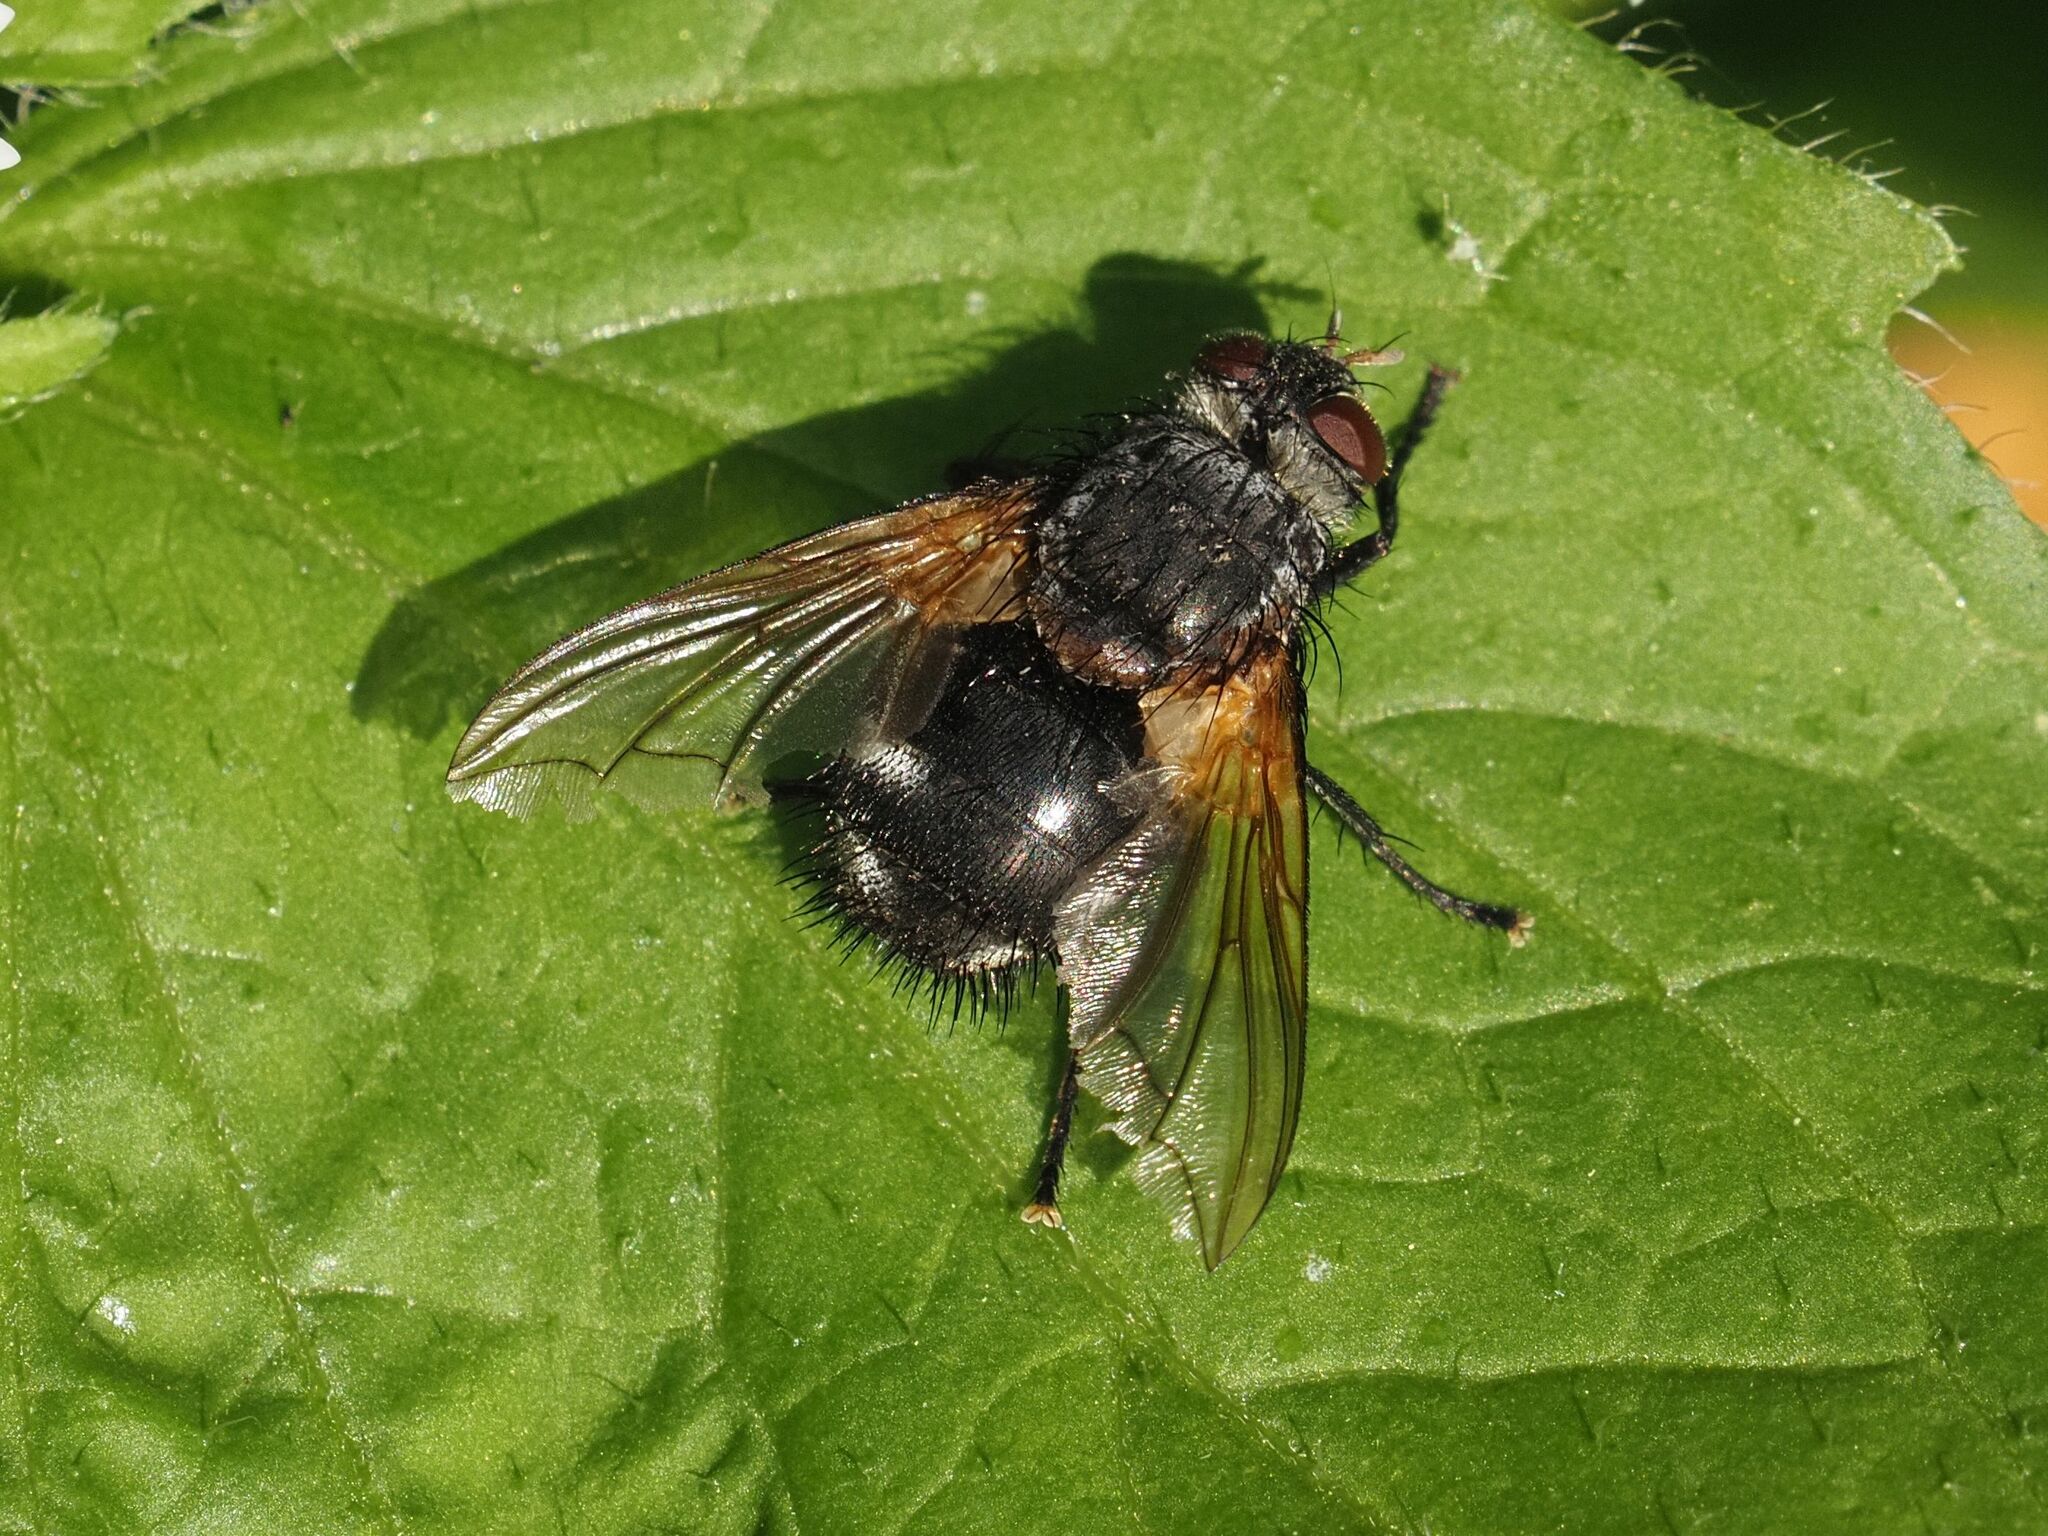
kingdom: Animalia
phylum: Arthropoda
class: Insecta
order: Diptera
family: Tachinidae
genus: Nemoraea
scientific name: Nemoraea pellucida
